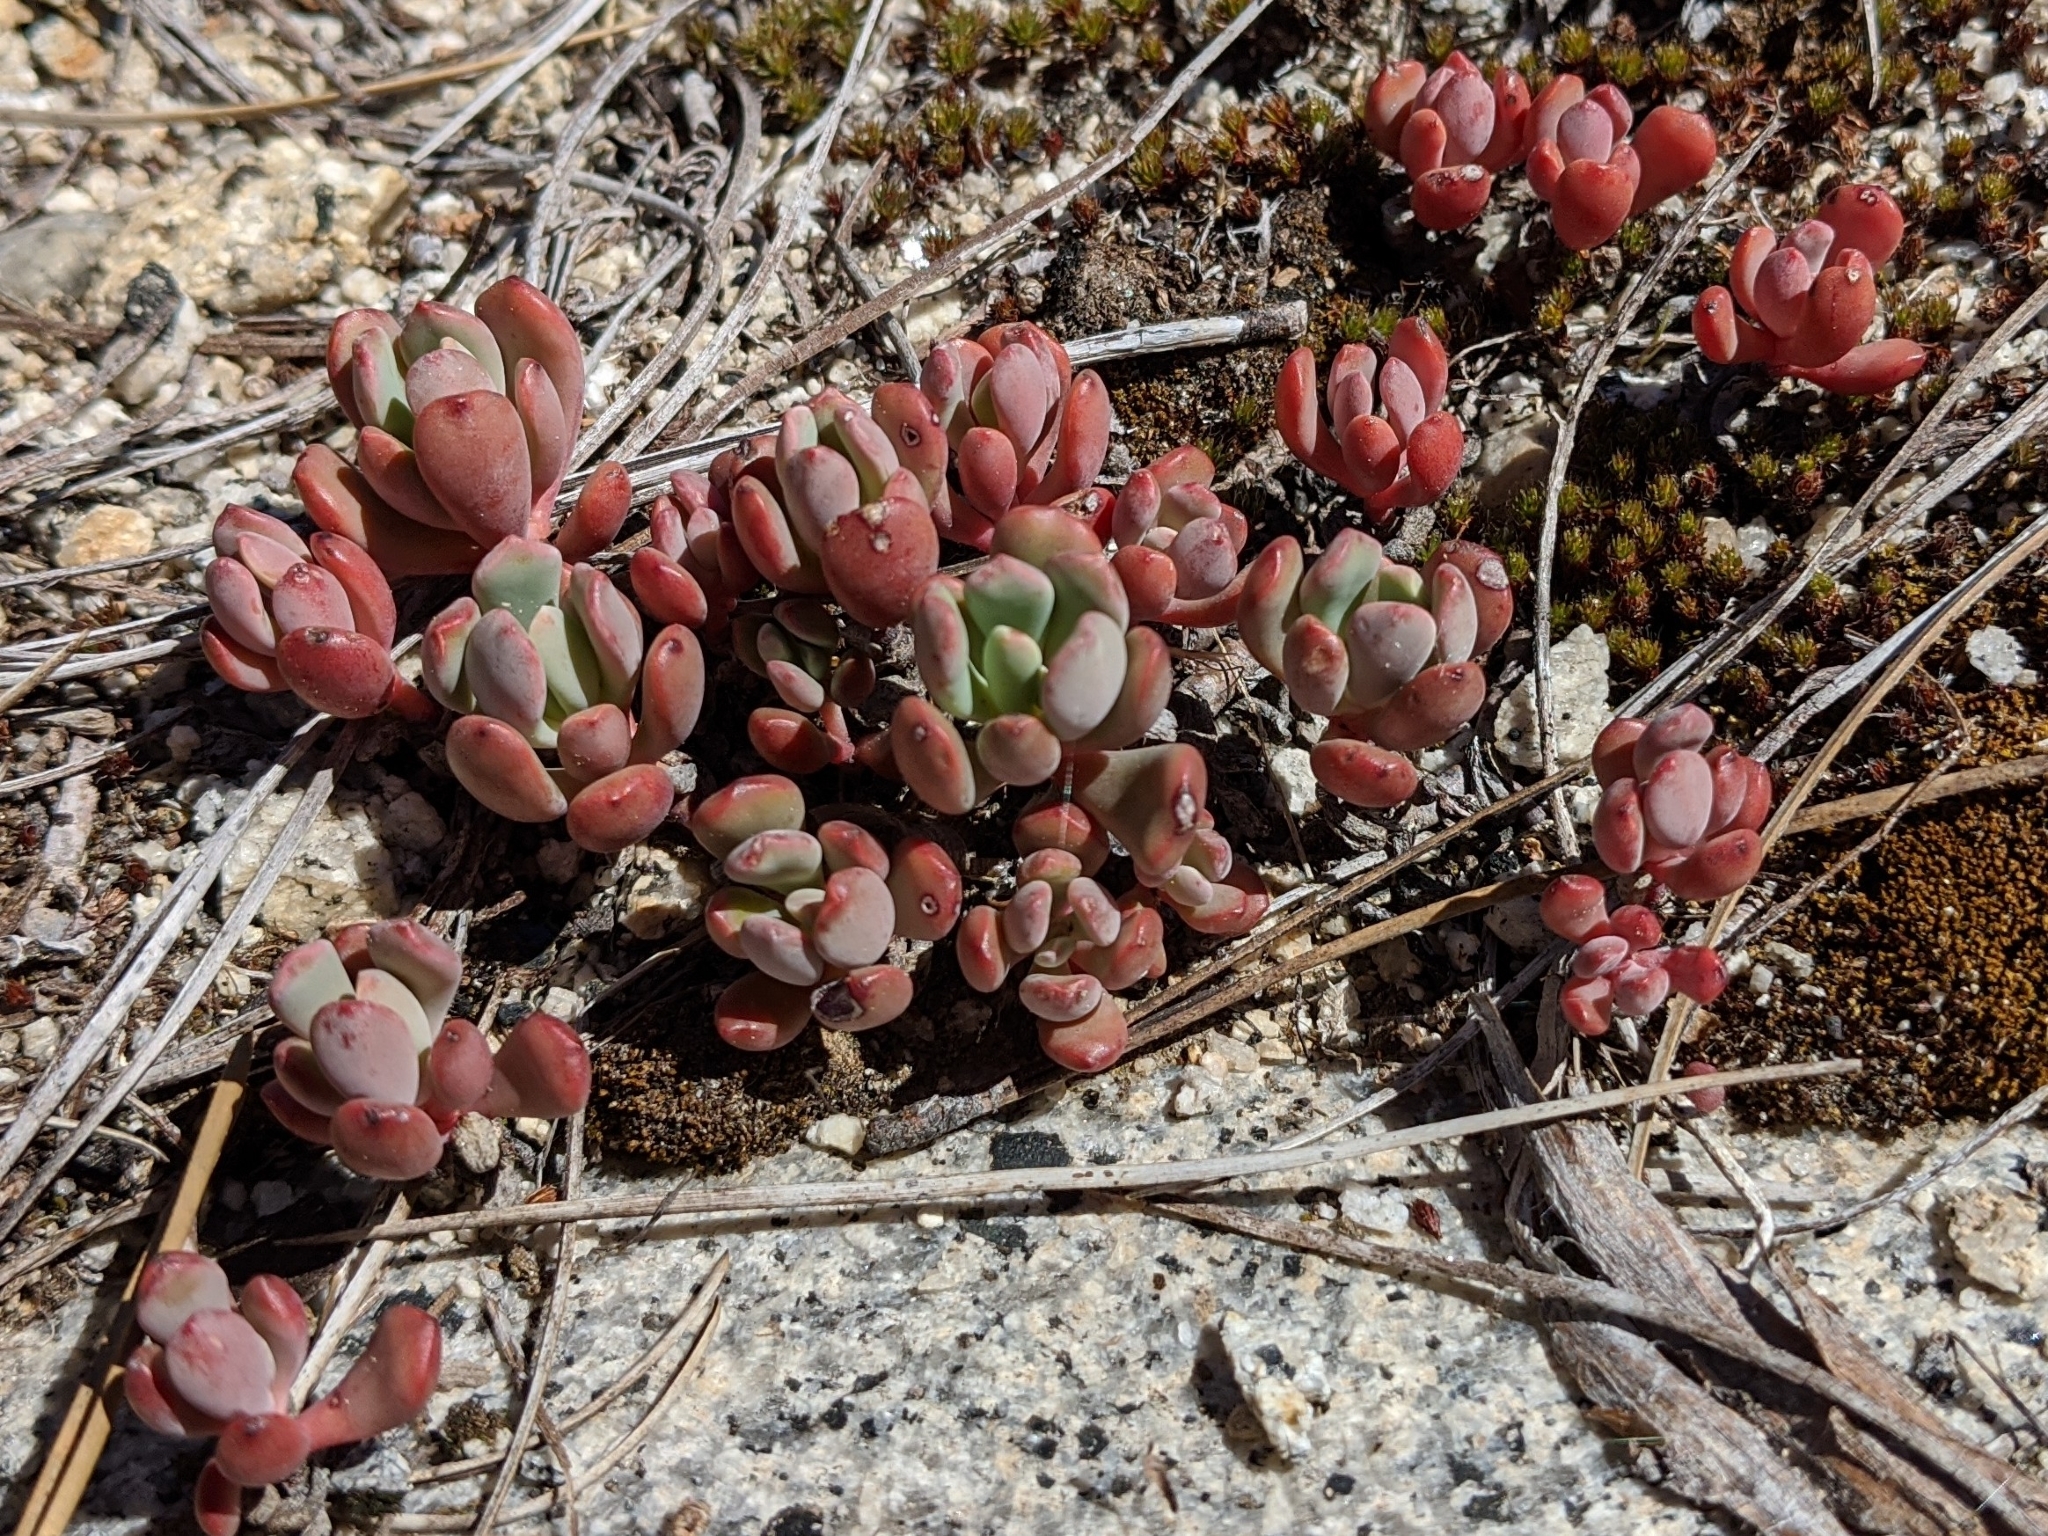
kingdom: Plantae
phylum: Tracheophyta
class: Magnoliopsida
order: Saxifragales
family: Crassulaceae
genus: Sedum
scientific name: Sedum obtusatum
